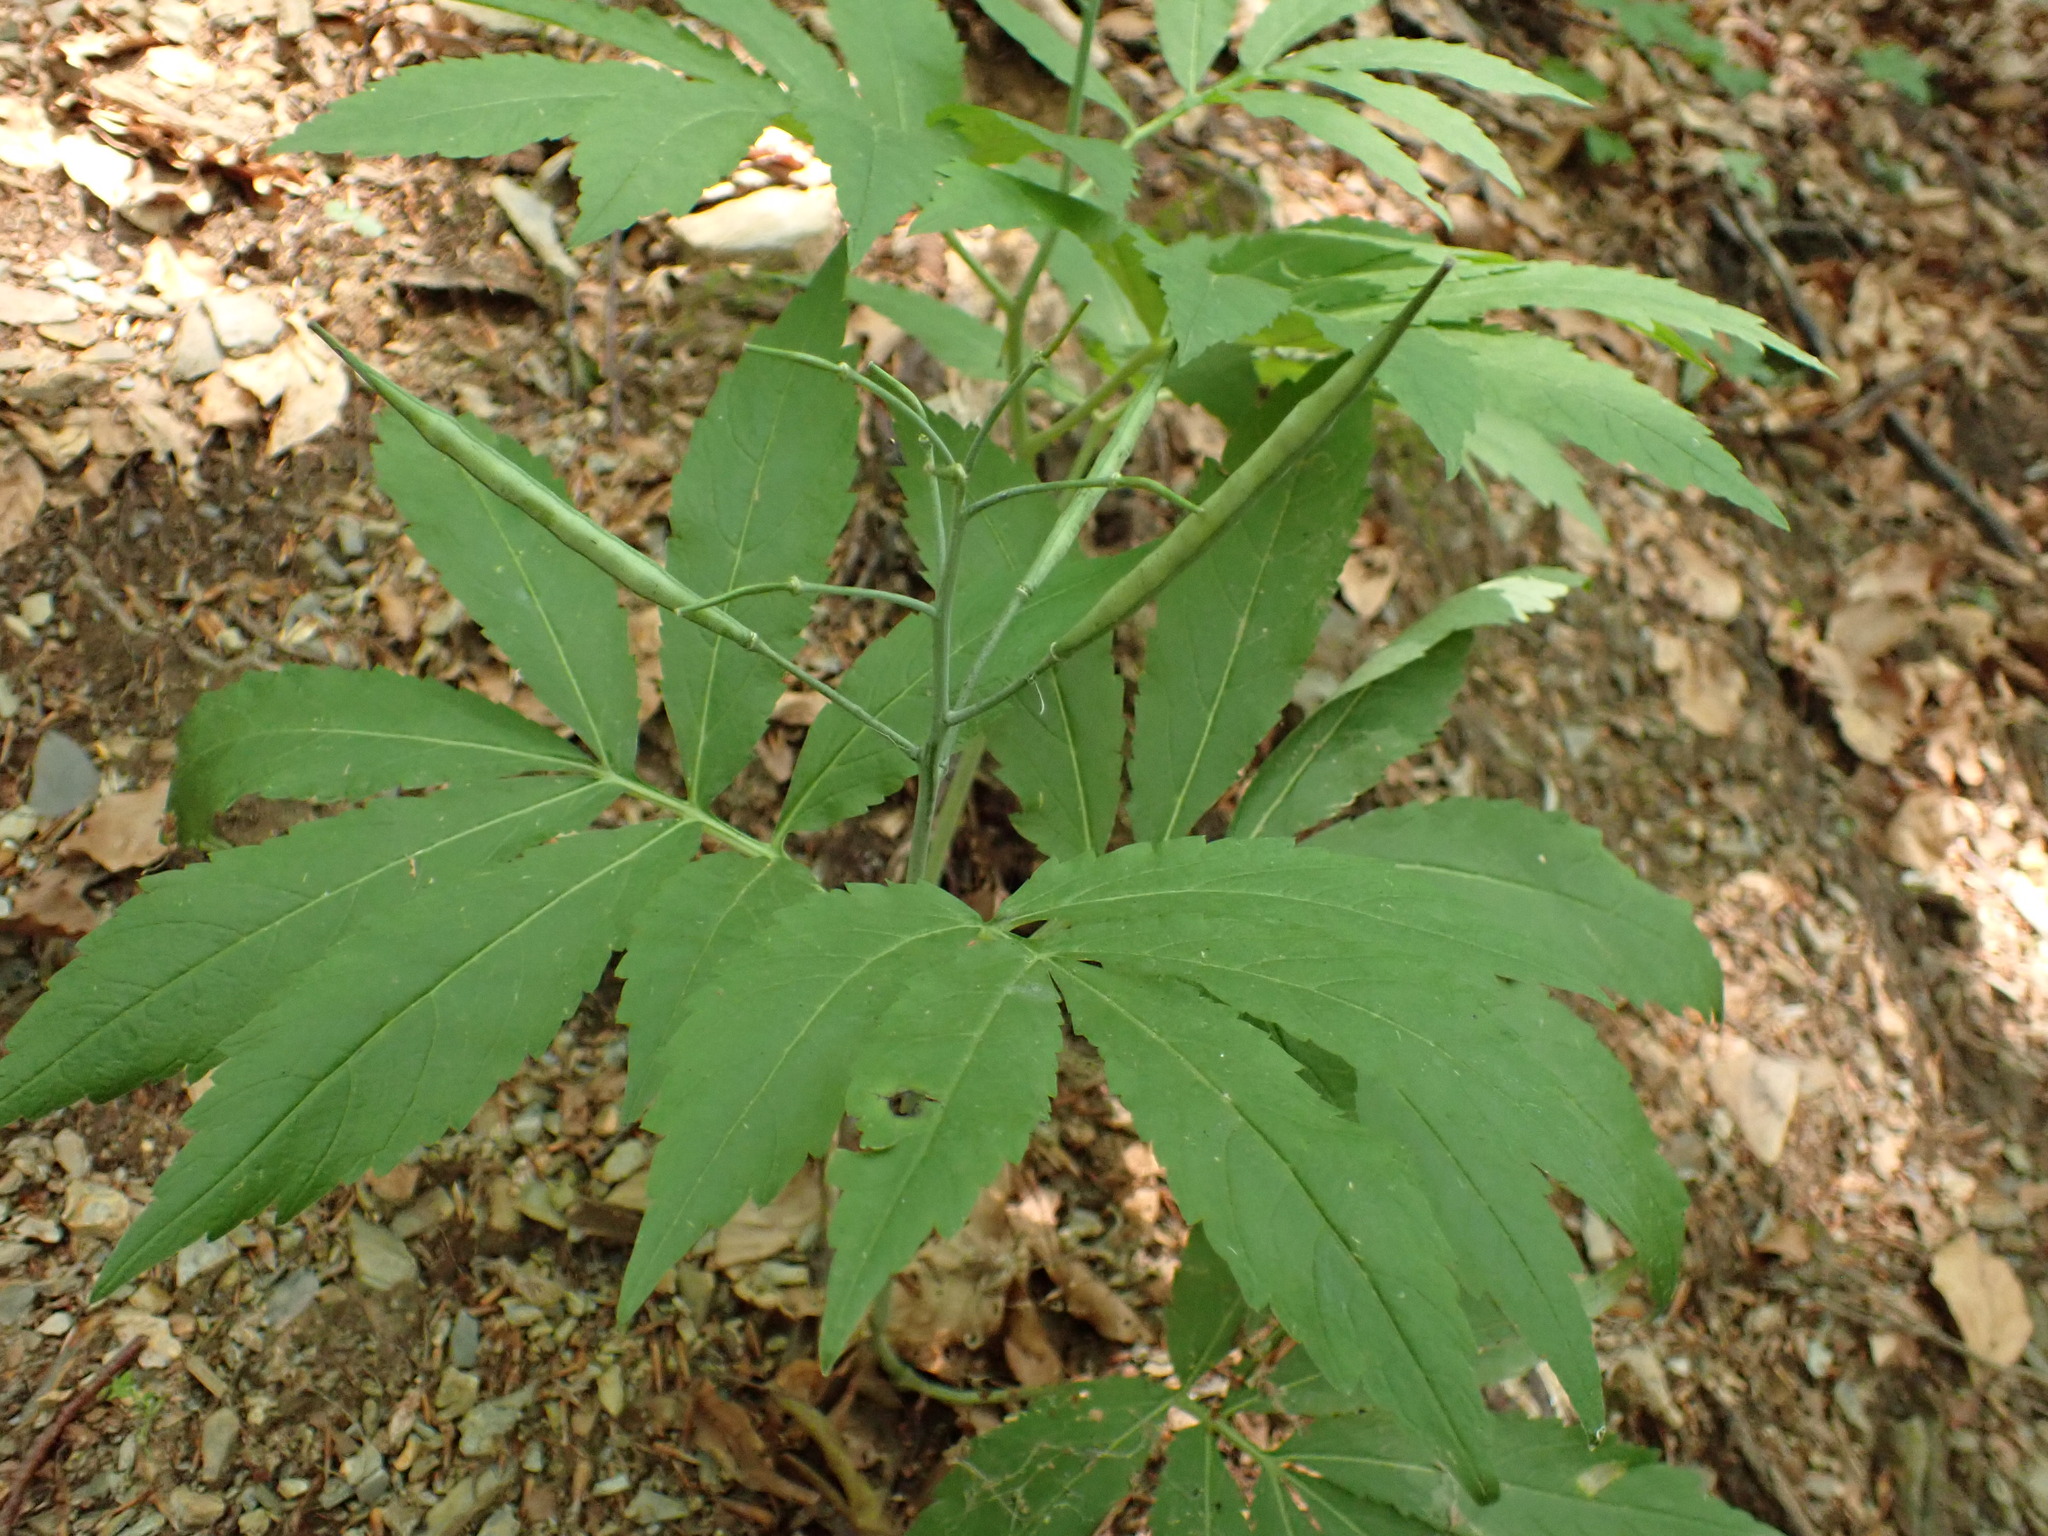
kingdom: Plantae
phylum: Tracheophyta
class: Magnoliopsida
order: Brassicales
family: Brassicaceae
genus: Cardamine
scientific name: Cardamine heptaphylla
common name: Pinnate coralroot
